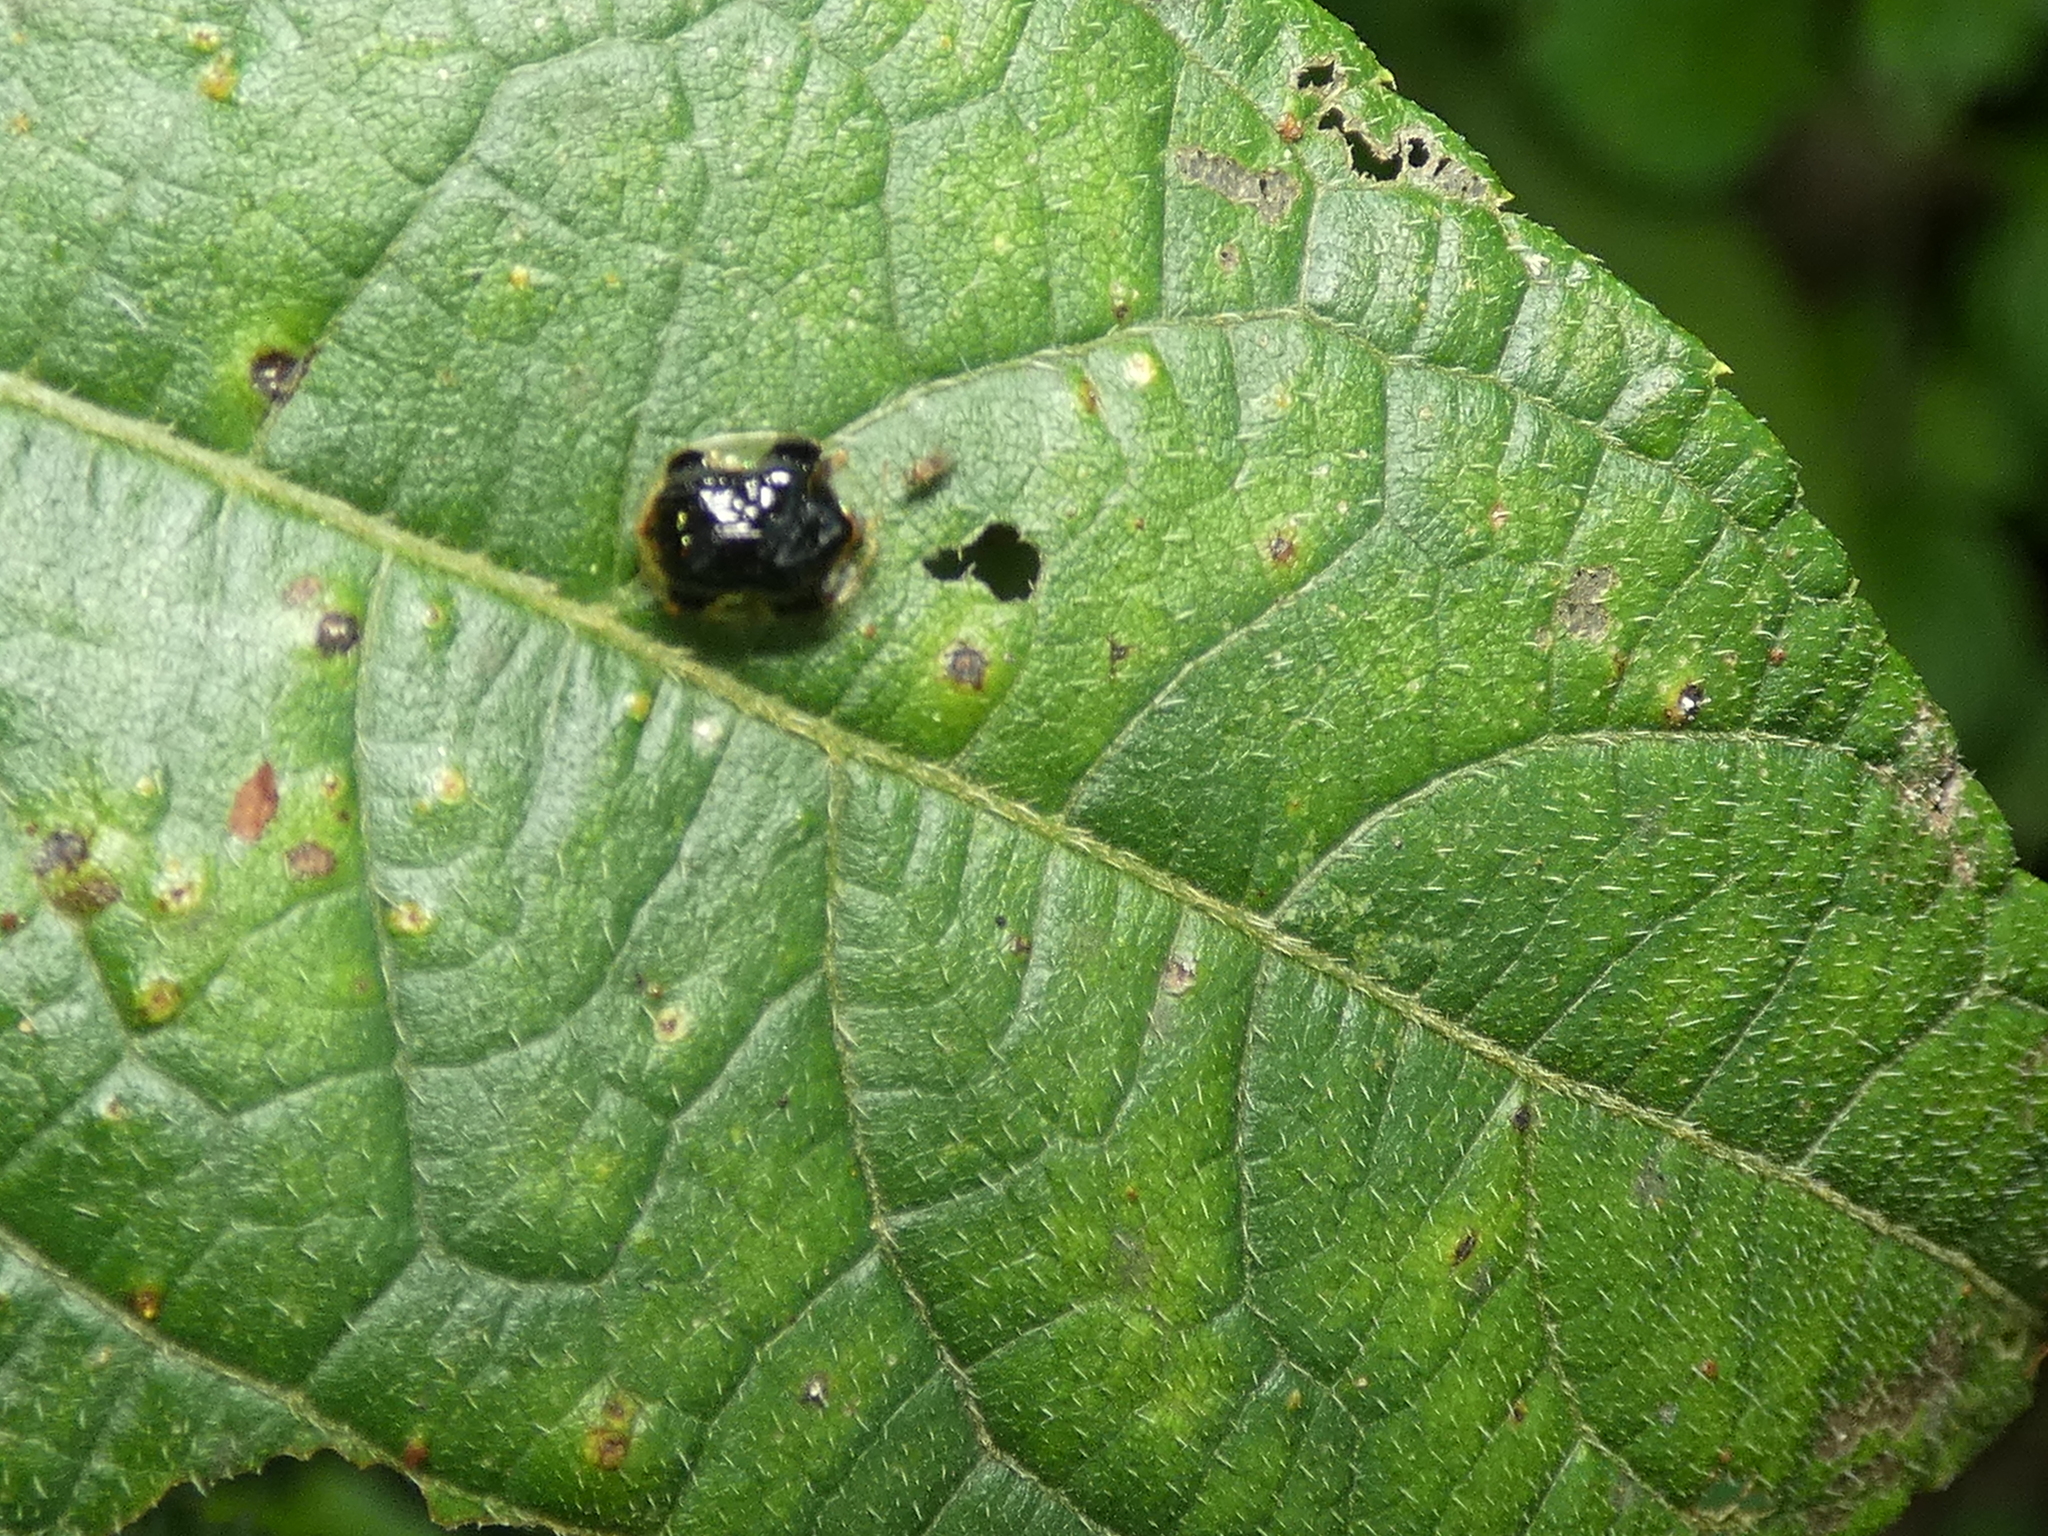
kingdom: Animalia
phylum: Arthropoda
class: Insecta
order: Coleoptera
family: Chrysomelidae
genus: Cteisella
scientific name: Cteisella ramosa
